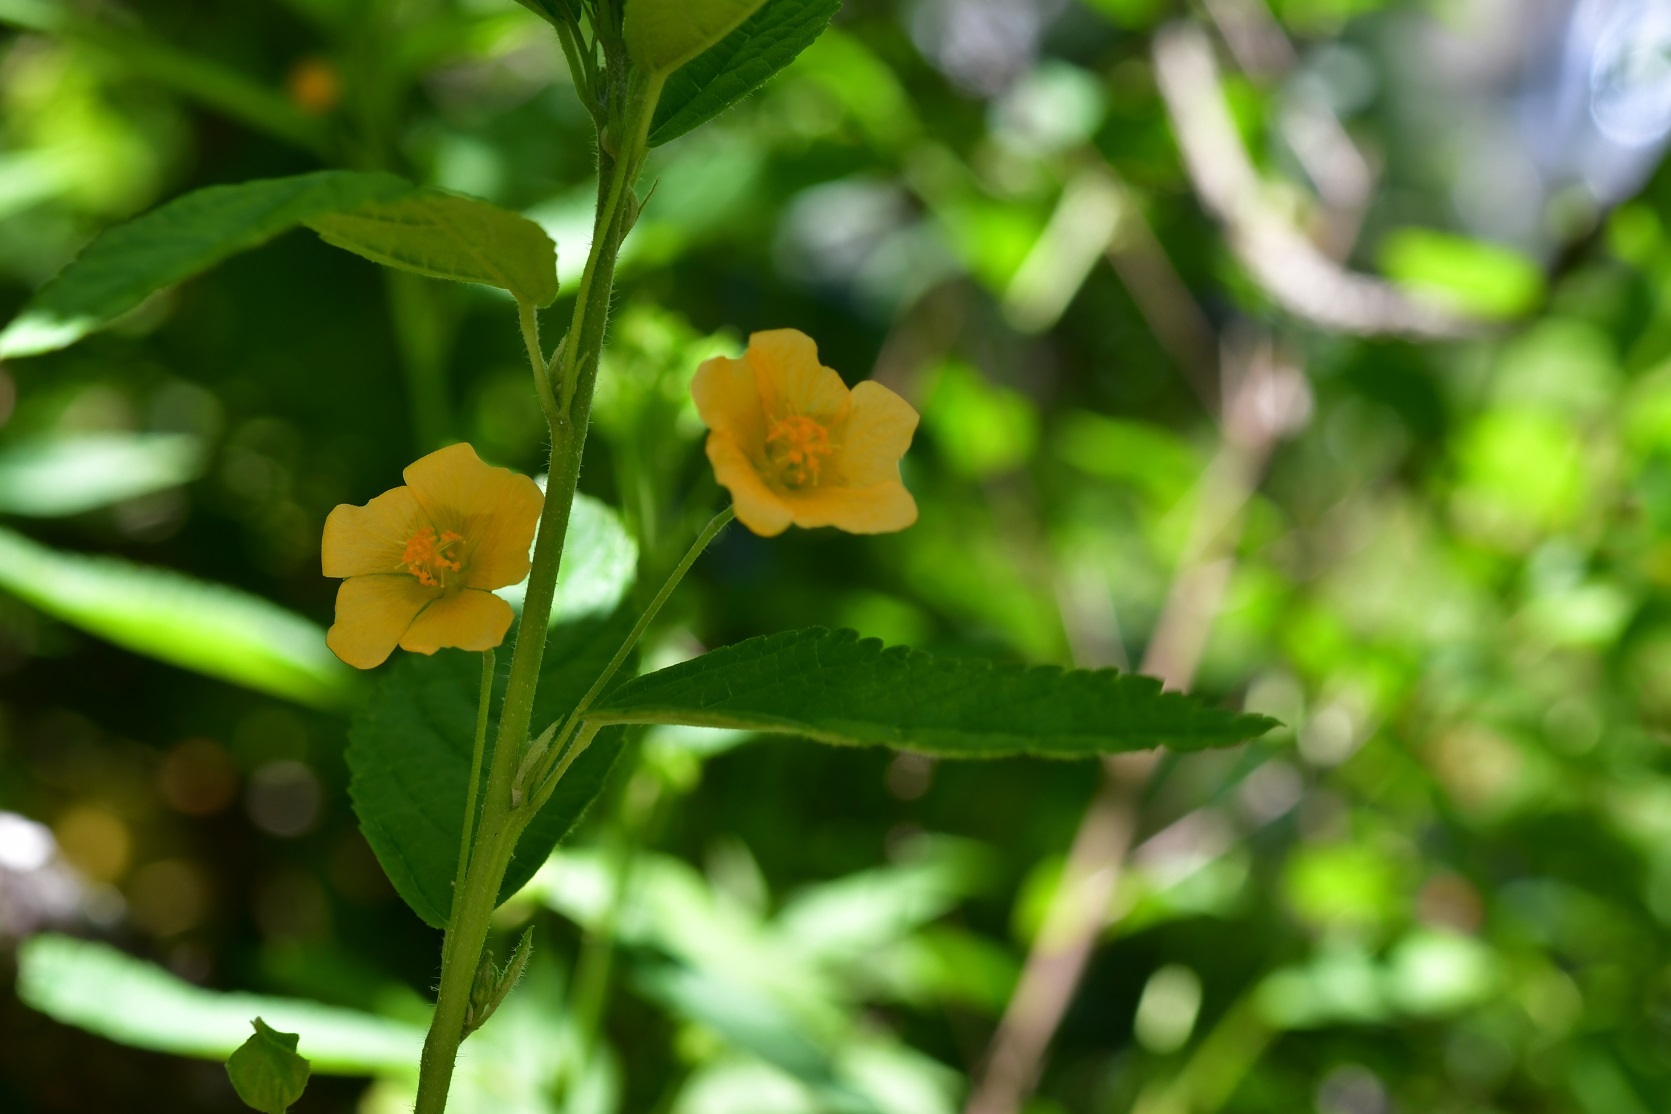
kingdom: Plantae
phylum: Tracheophyta
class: Magnoliopsida
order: Malvales
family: Malvaceae
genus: Sida
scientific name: Sida acuta
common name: Common wireweed
